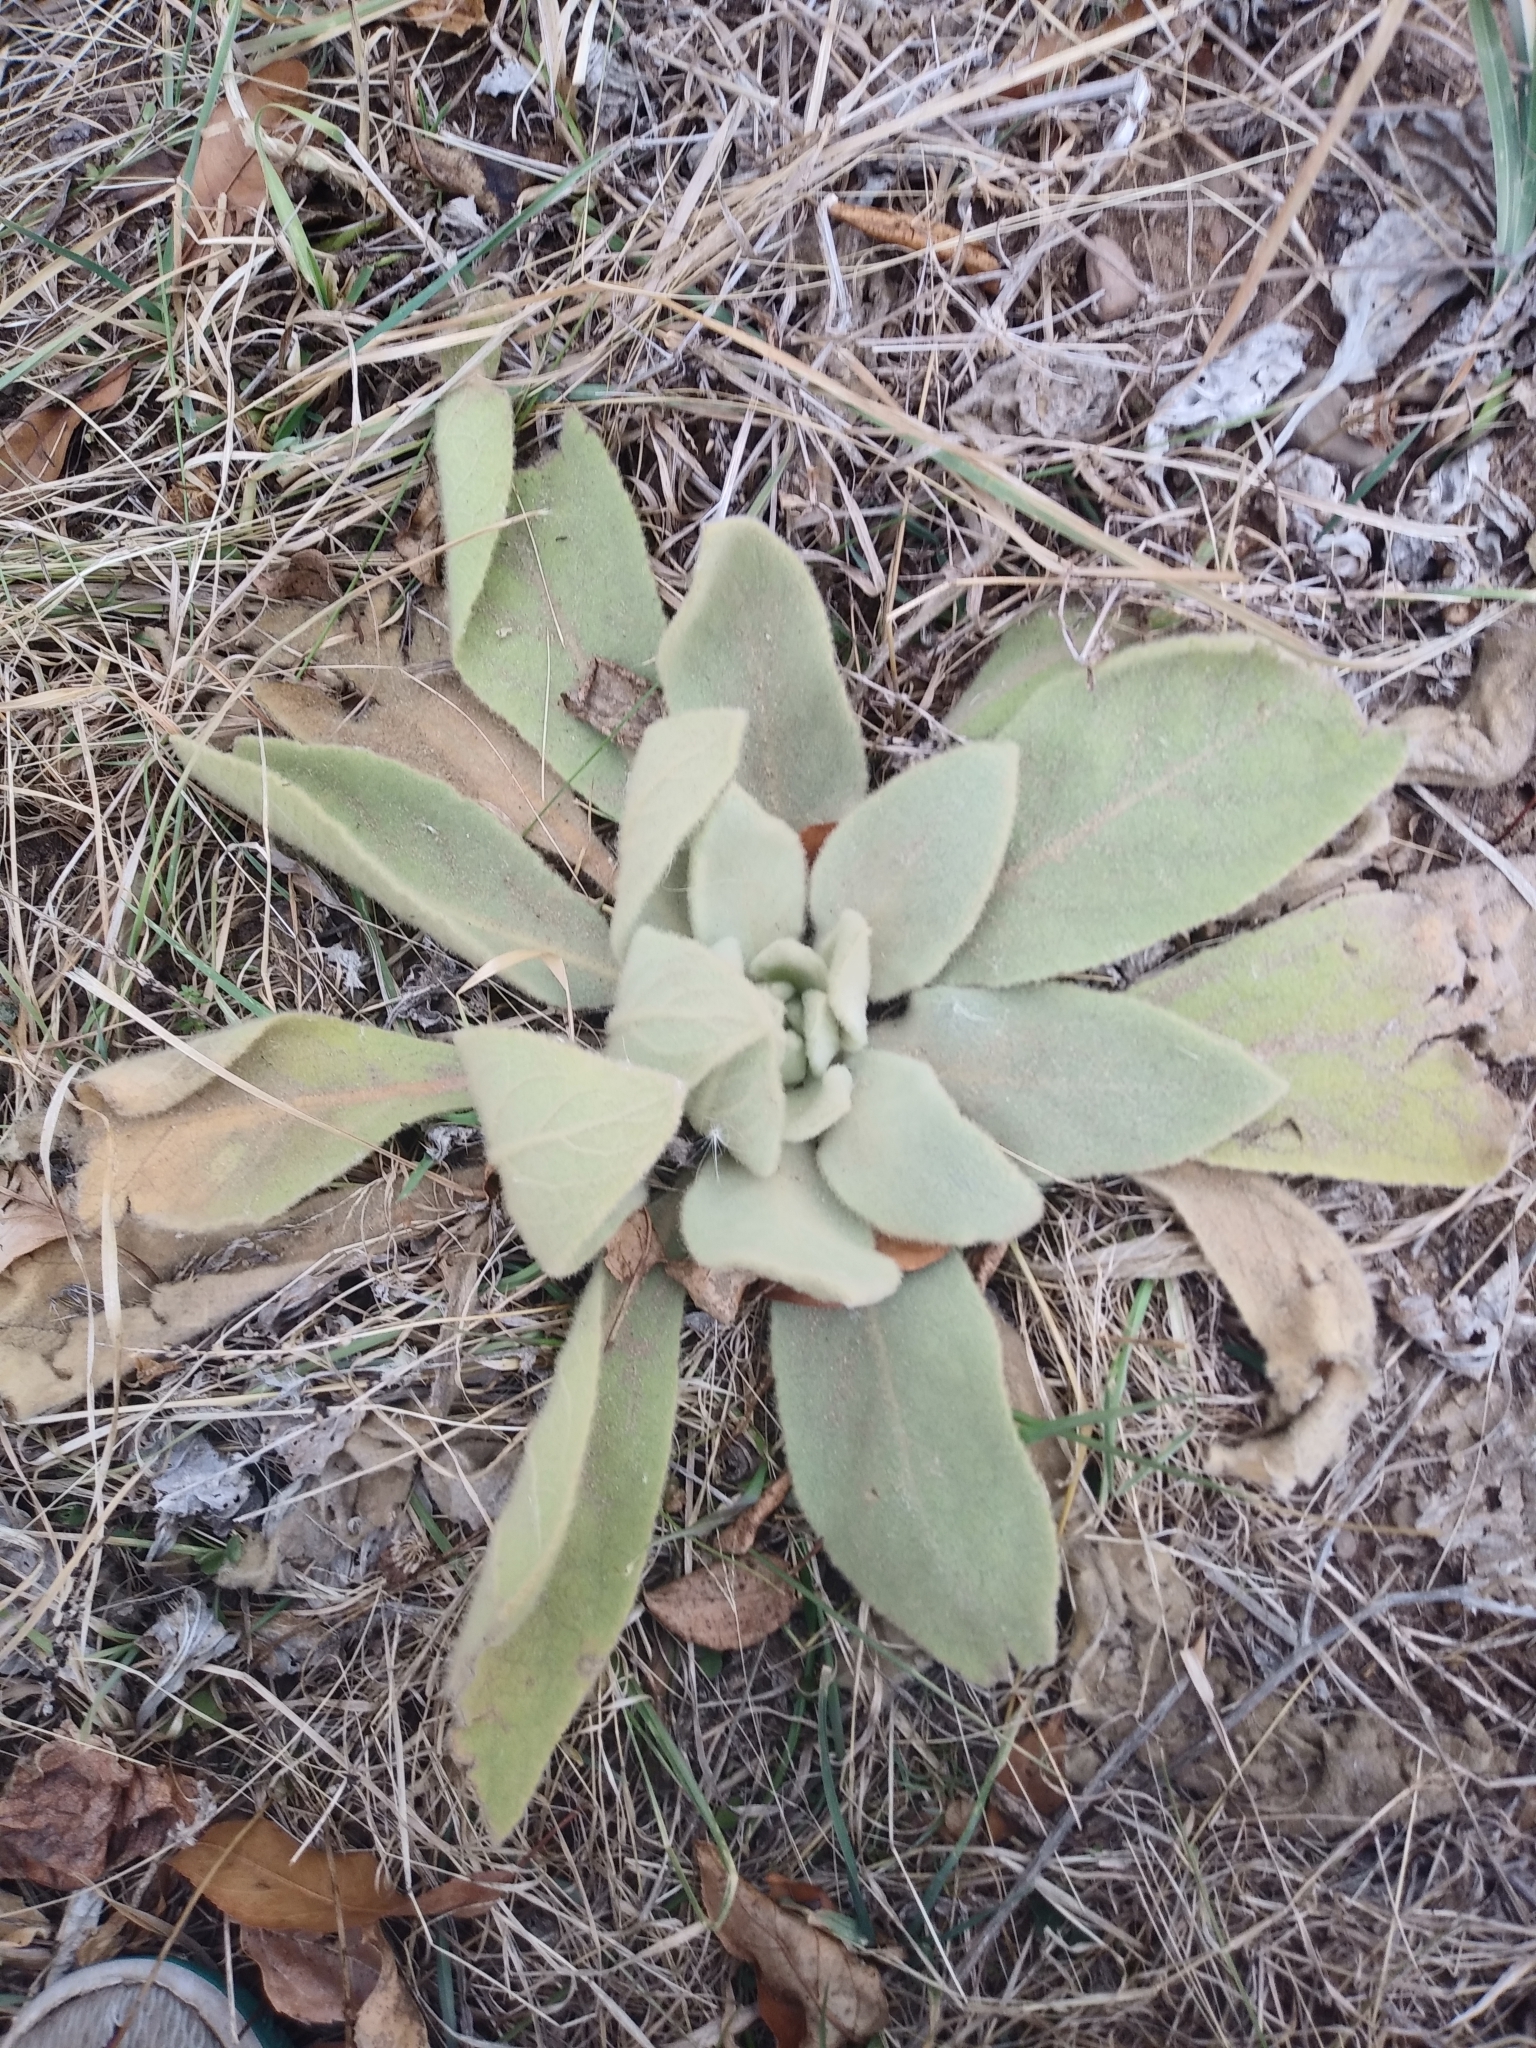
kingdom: Plantae
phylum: Tracheophyta
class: Magnoliopsida
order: Lamiales
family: Scrophulariaceae
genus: Verbascum
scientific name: Verbascum thapsus
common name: Common mullein
